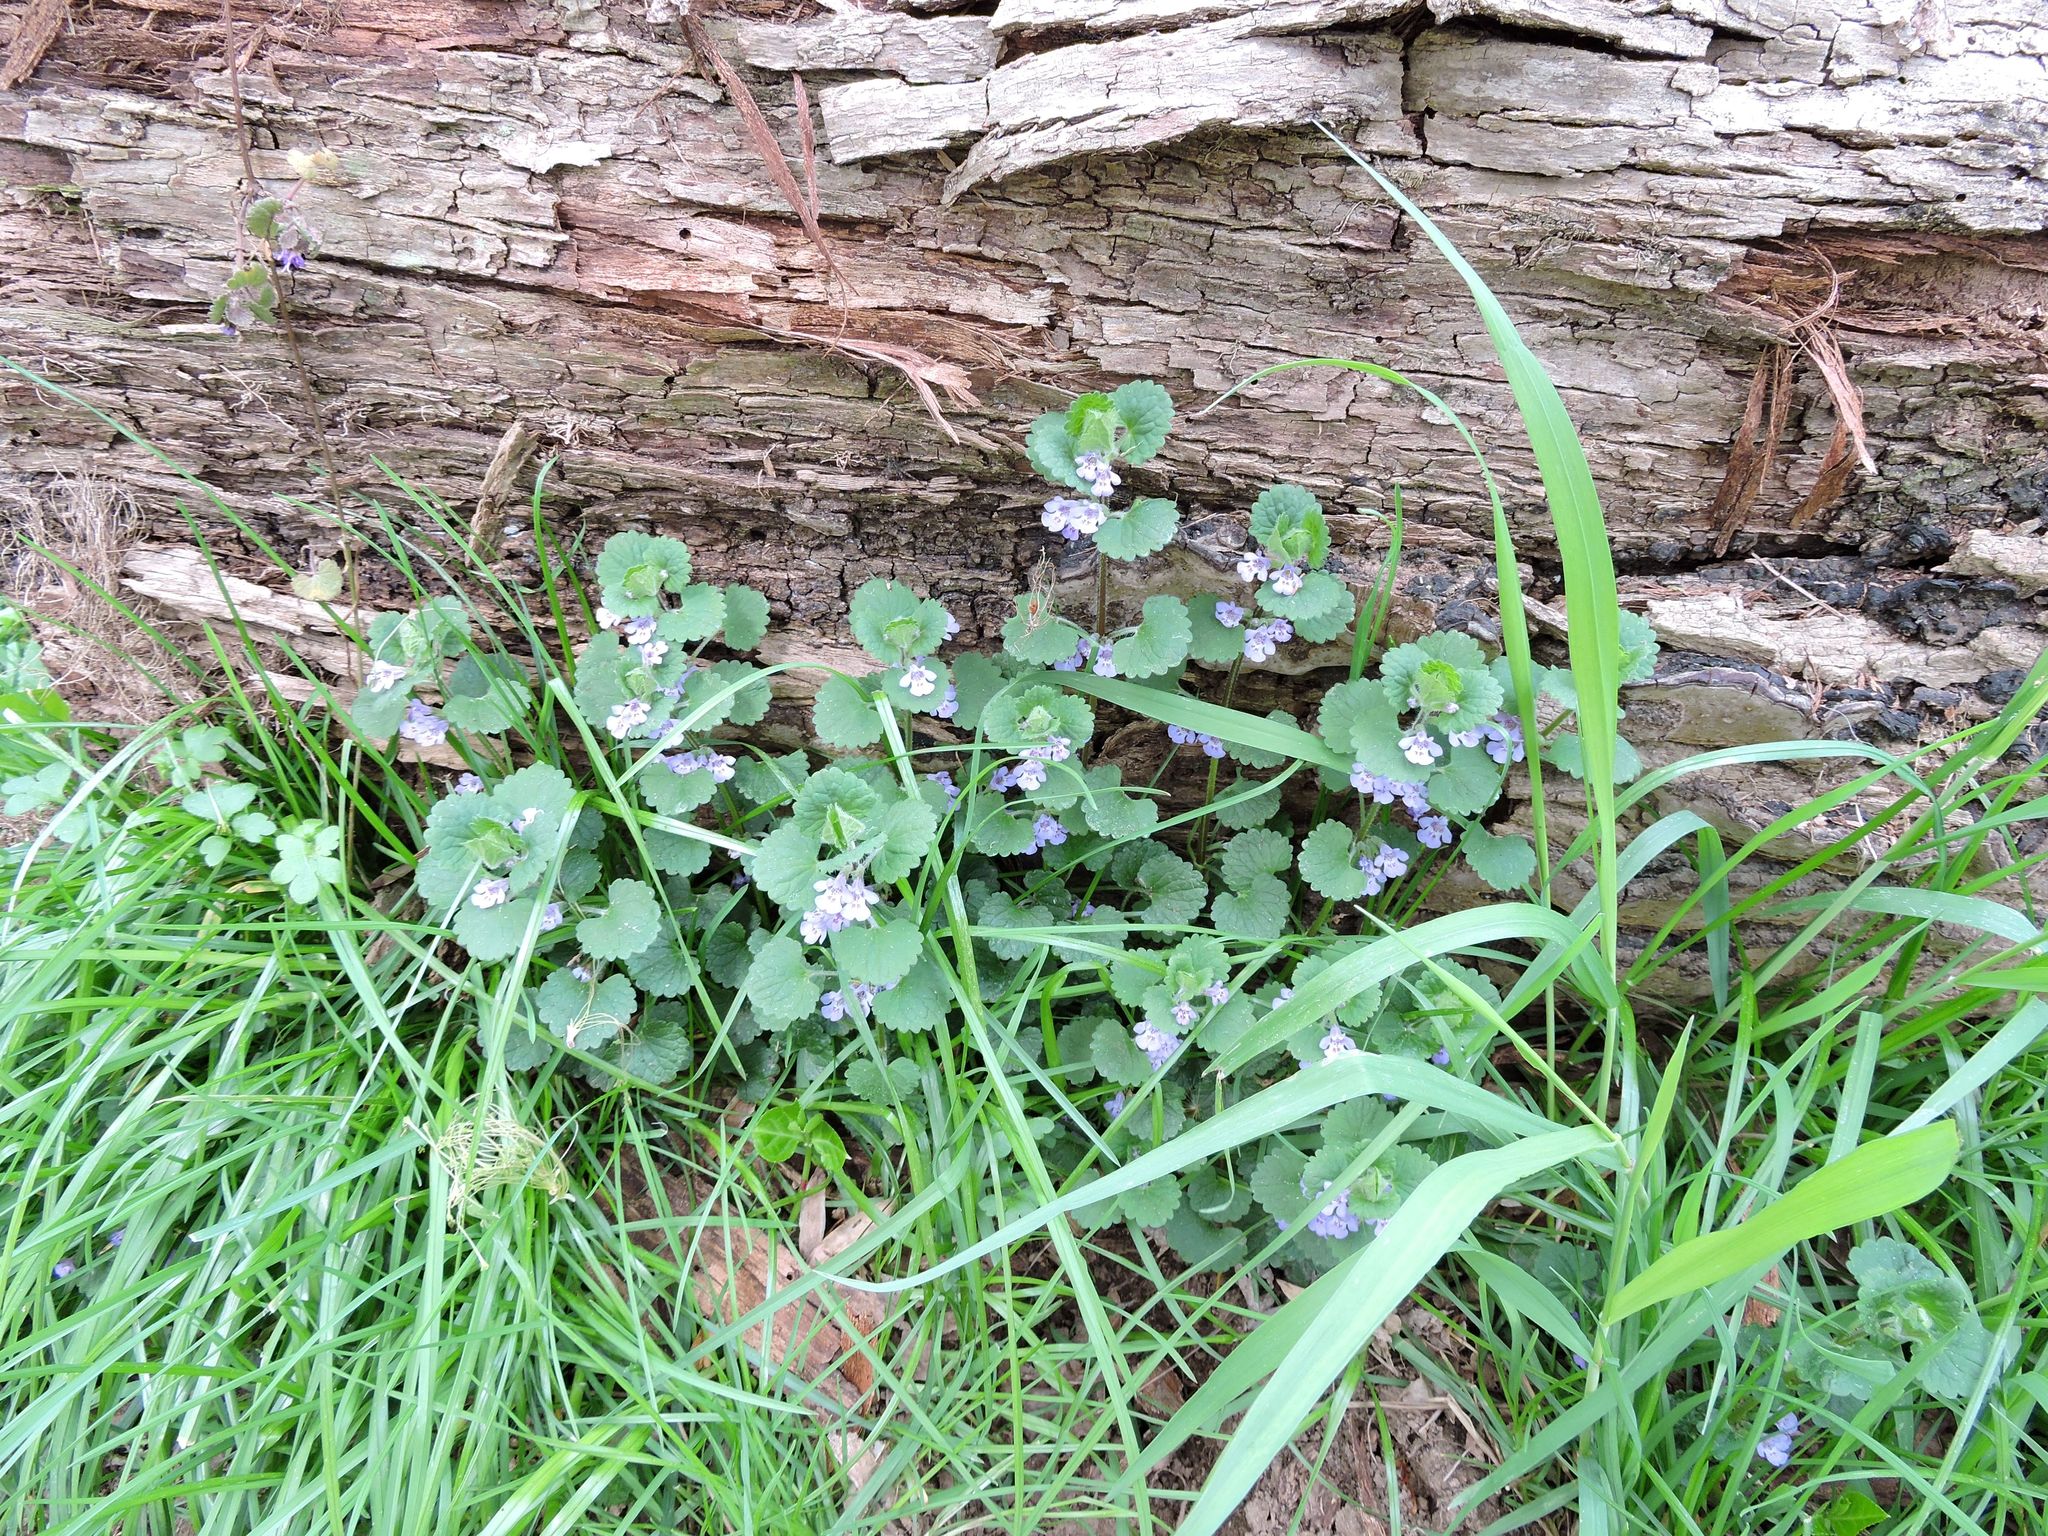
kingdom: Plantae
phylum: Tracheophyta
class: Magnoliopsida
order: Lamiales
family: Lamiaceae
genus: Glechoma
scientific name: Glechoma hederacea
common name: Ground ivy
